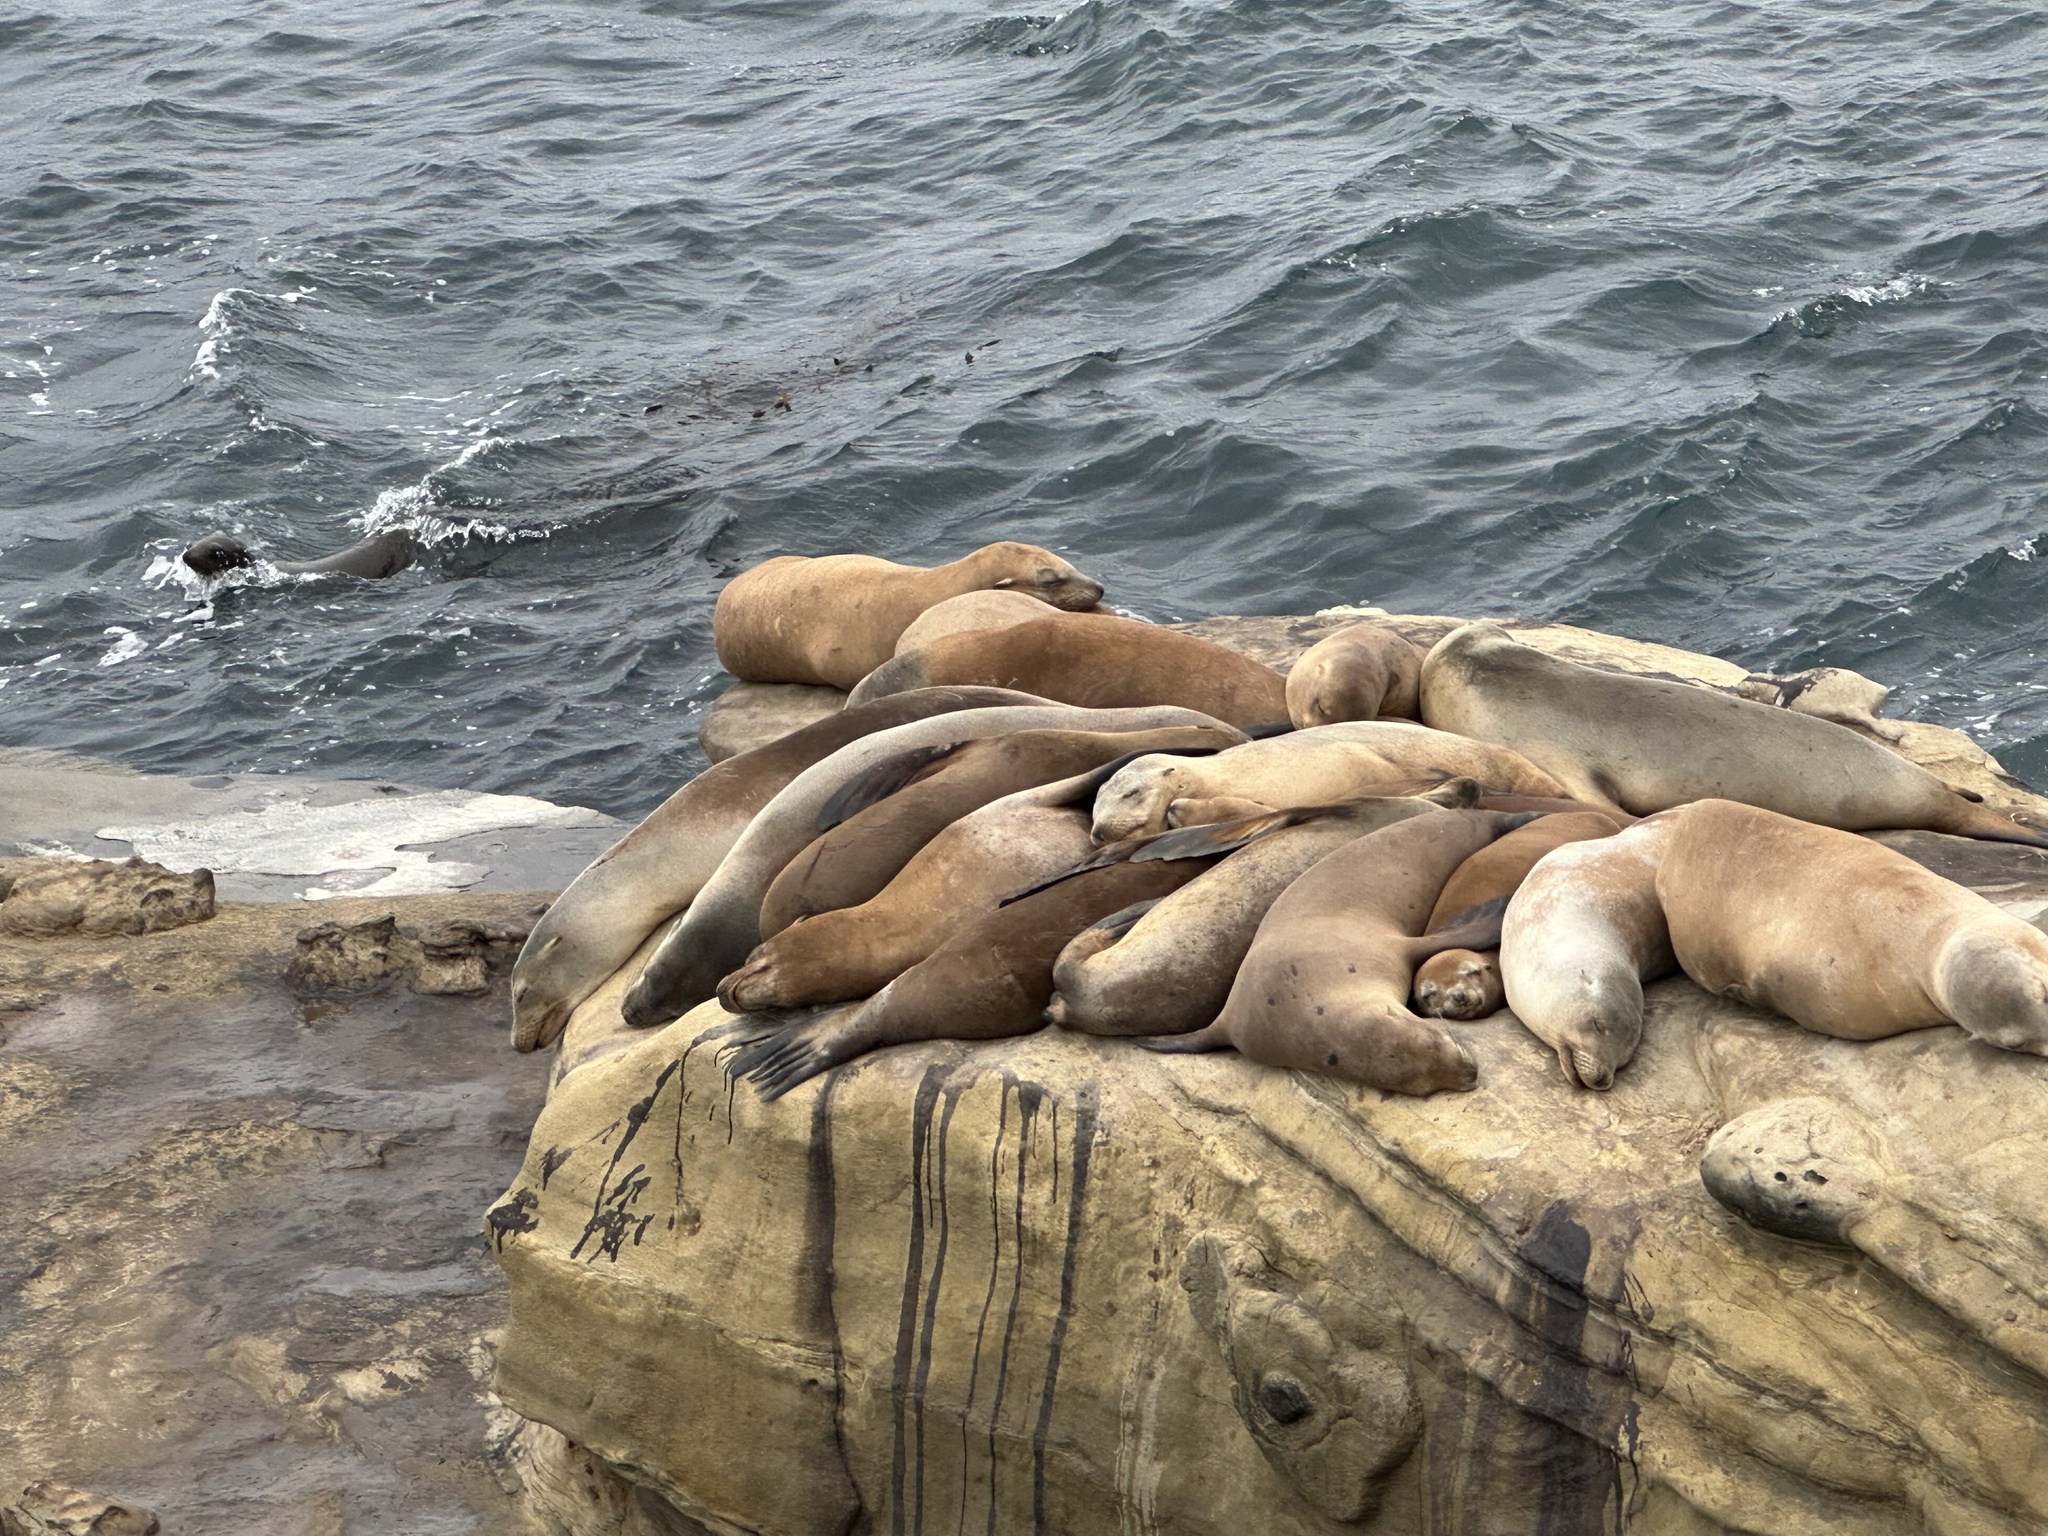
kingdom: Animalia
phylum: Chordata
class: Mammalia
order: Carnivora
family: Otariidae
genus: Zalophus
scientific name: Zalophus californianus
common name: California sea lion
